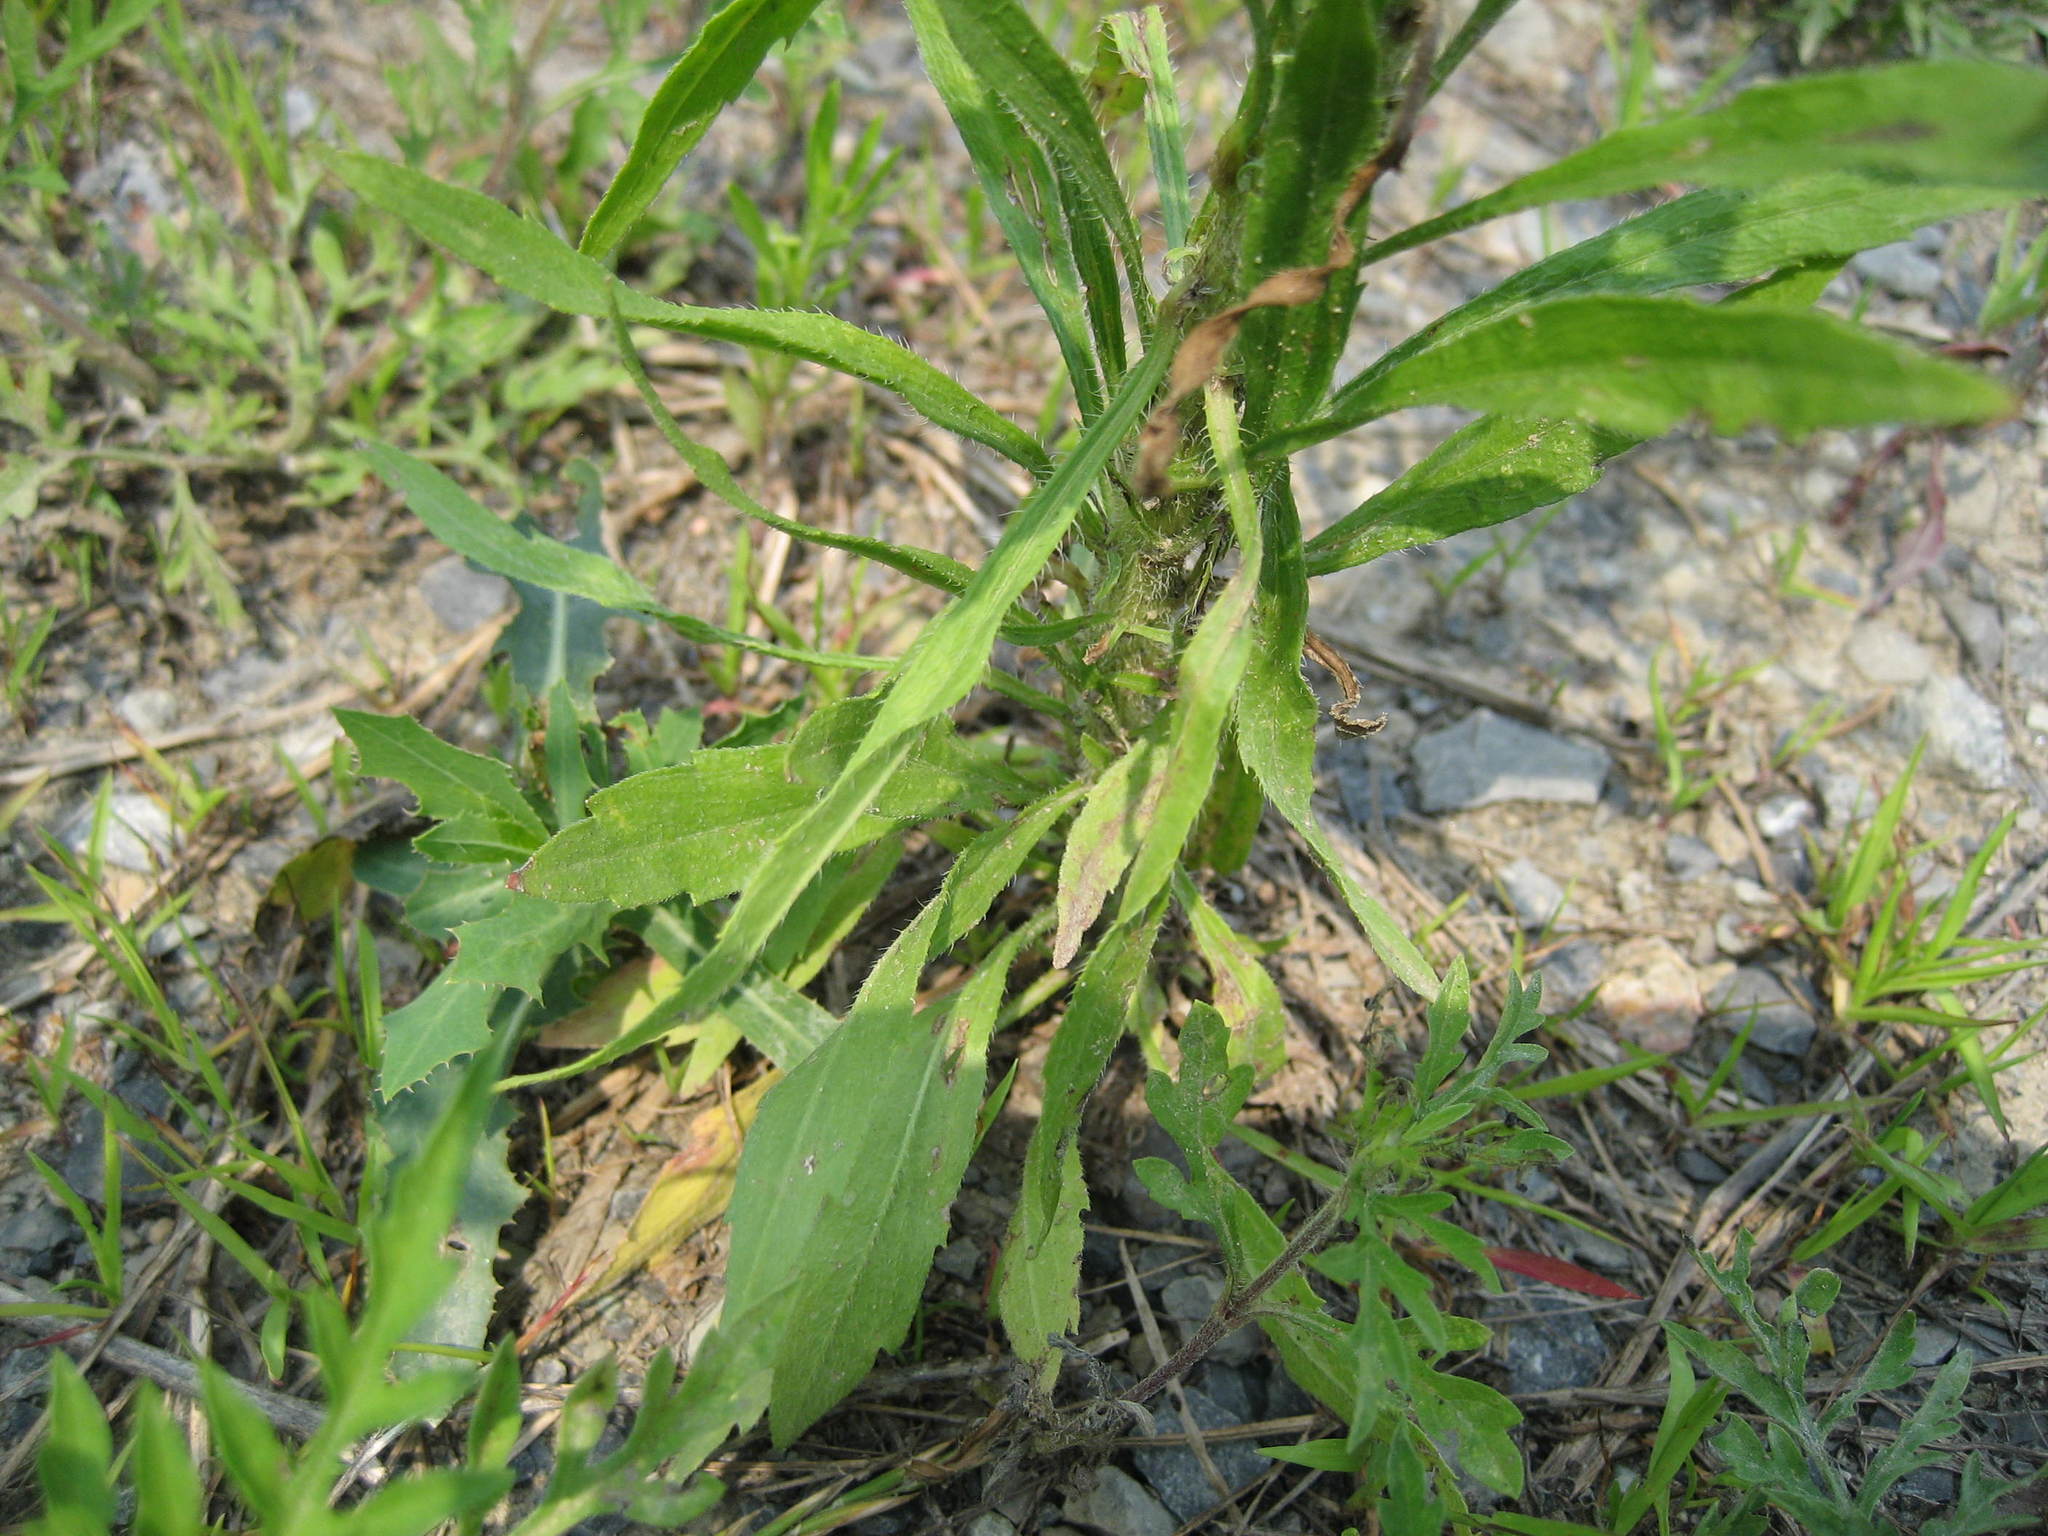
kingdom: Plantae
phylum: Tracheophyta
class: Magnoliopsida
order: Asterales
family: Asteraceae
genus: Erigeron
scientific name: Erigeron canadensis
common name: Canadian fleabane
